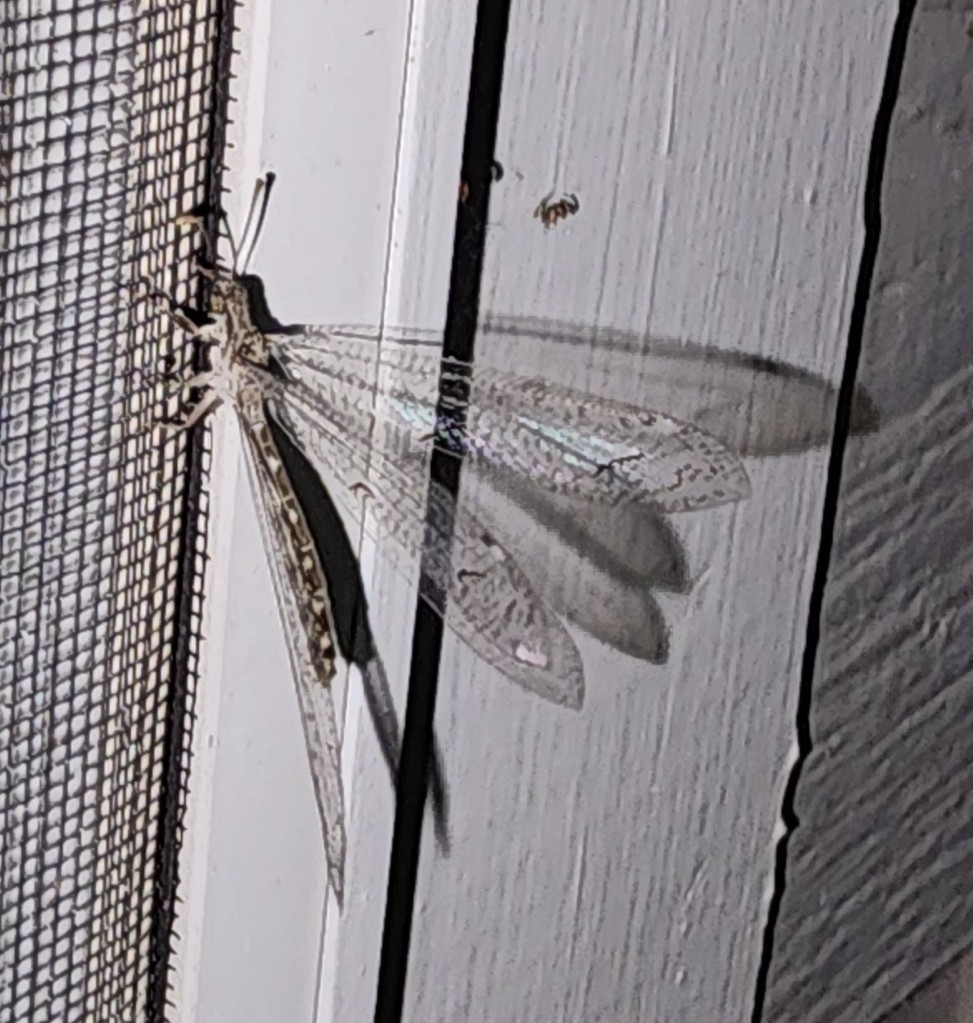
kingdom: Animalia
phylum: Arthropoda
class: Insecta
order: Neuroptera
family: Myrmeleontidae
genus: Euptilon
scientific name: Euptilon ornatum
